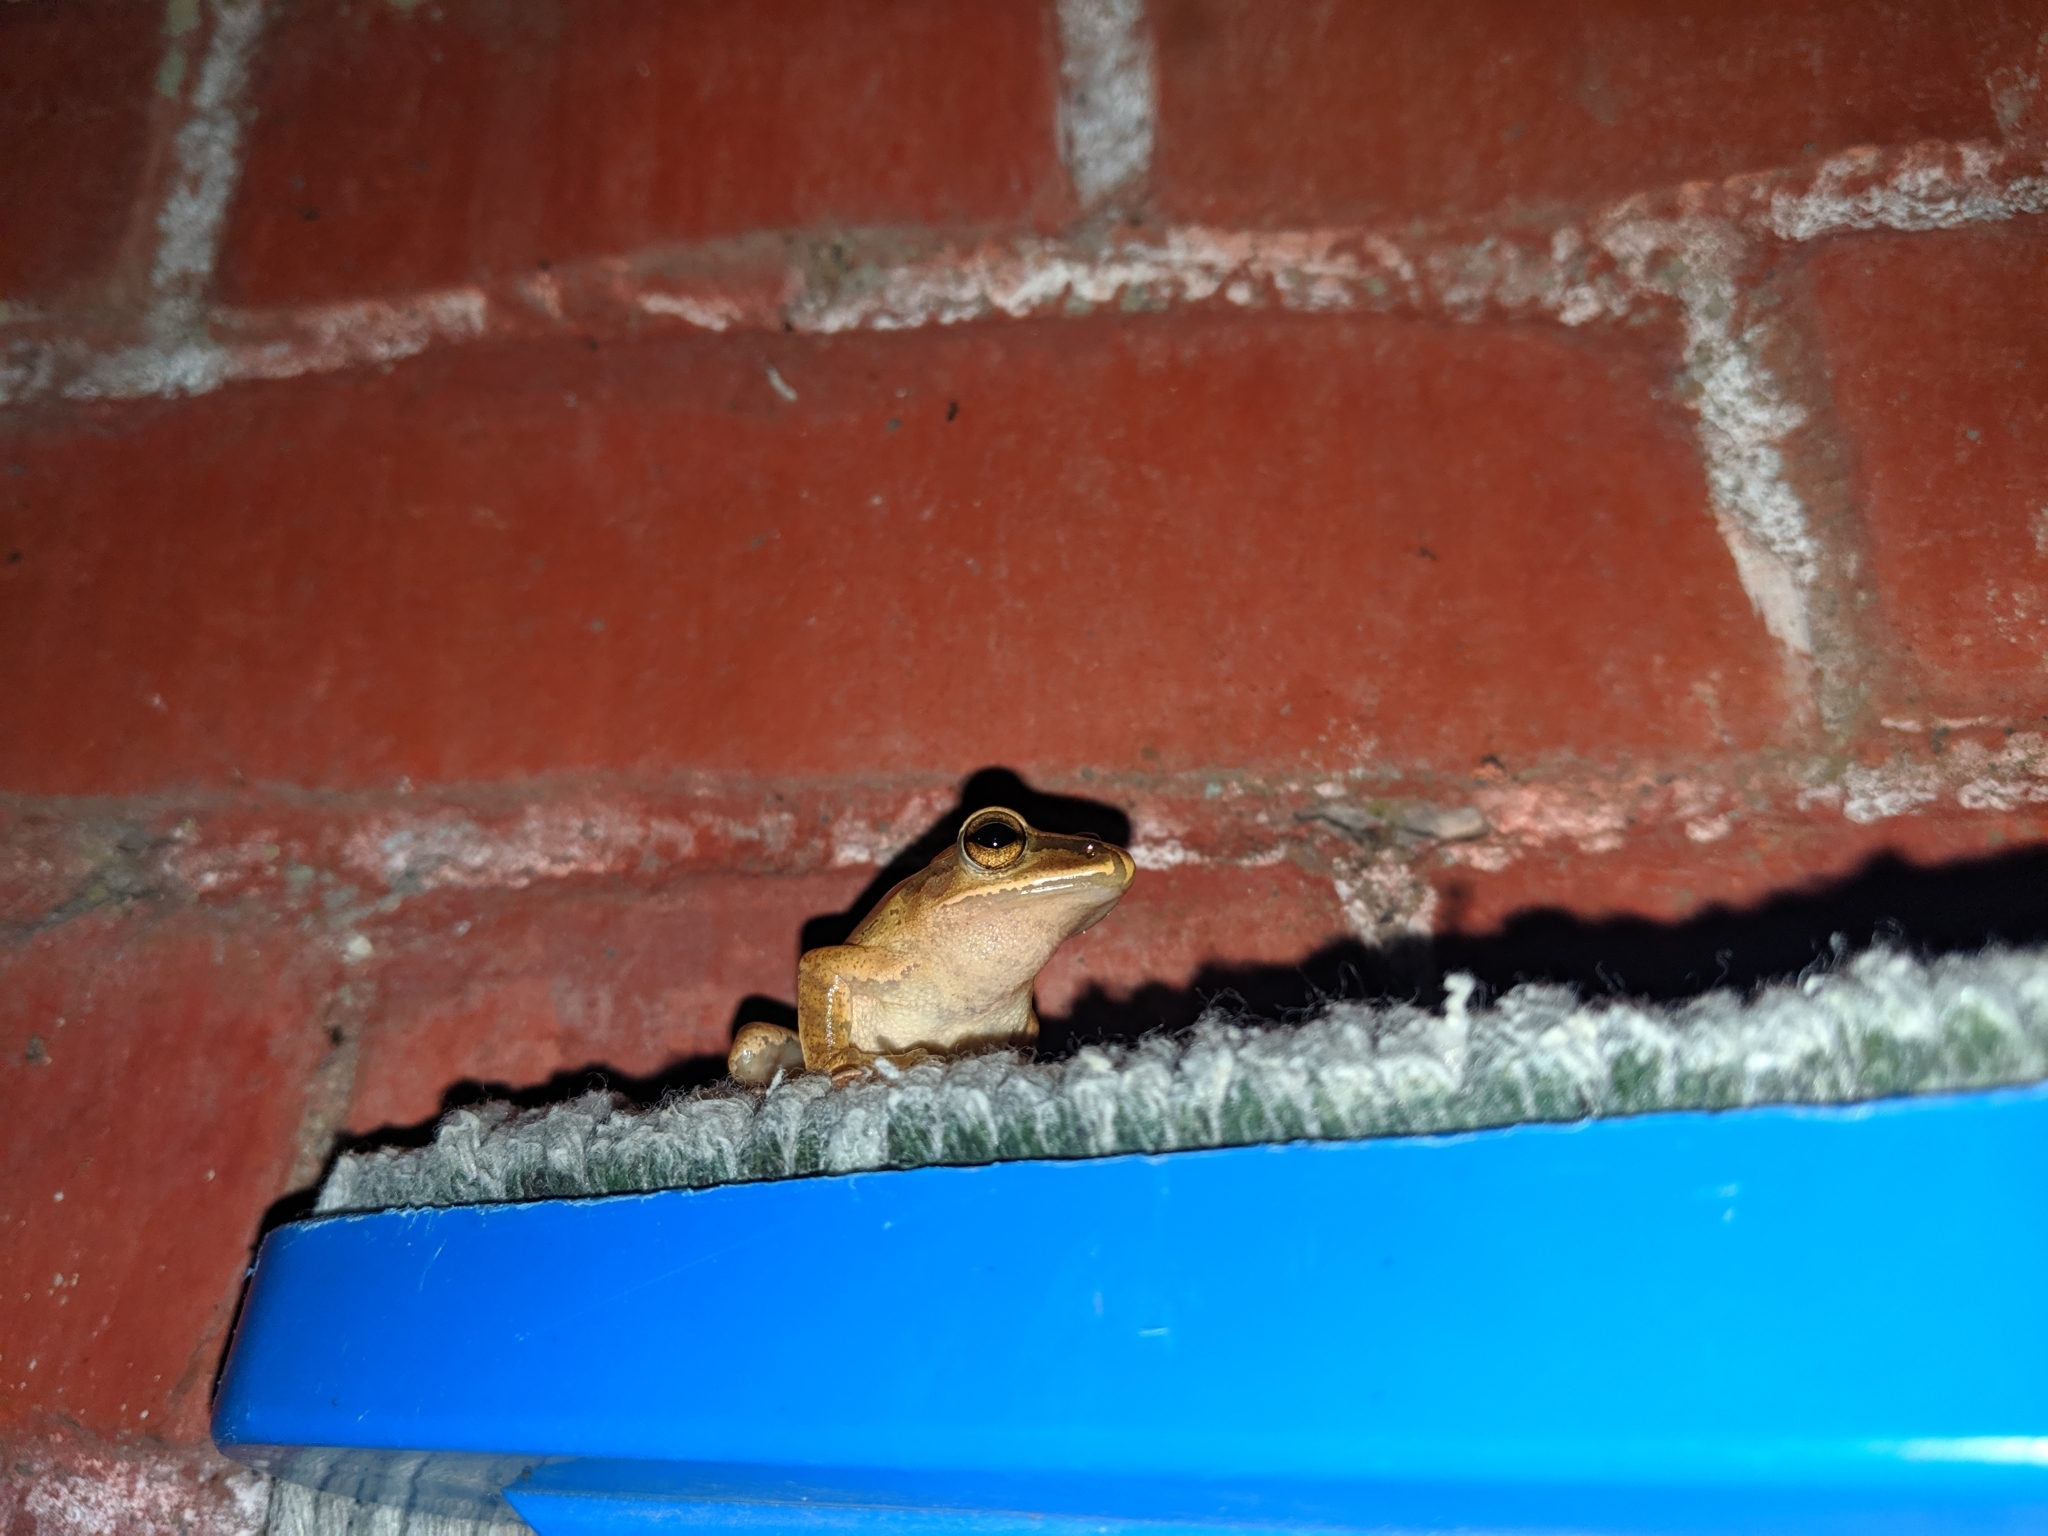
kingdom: Animalia
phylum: Chordata
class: Amphibia
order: Anura
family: Rhacophoridae
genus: Polypedates
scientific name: Polypedates braueri
